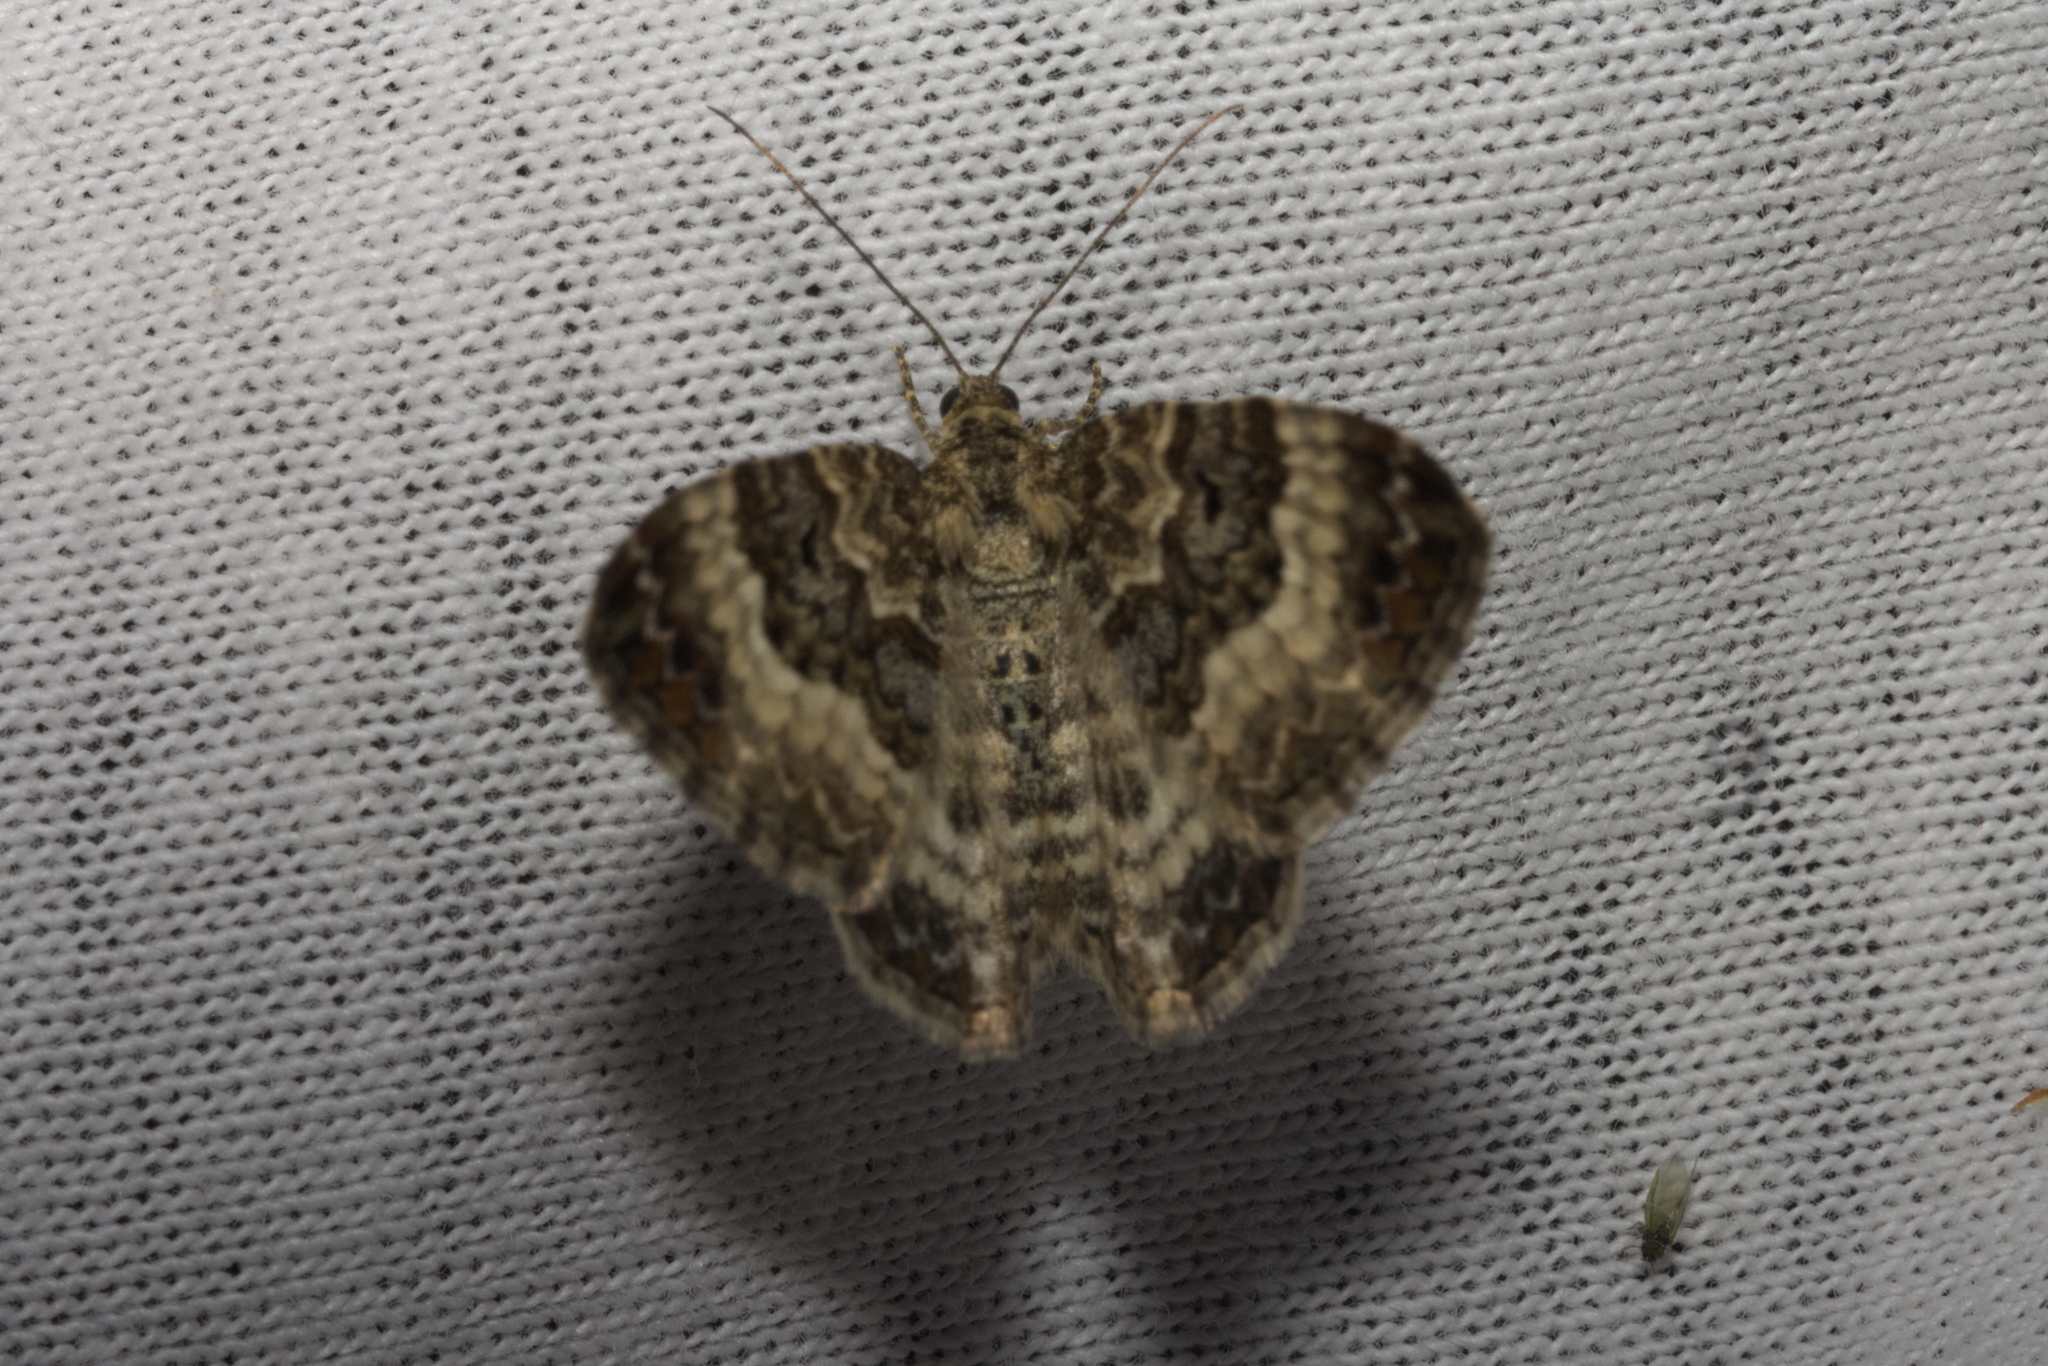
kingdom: Animalia
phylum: Arthropoda
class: Insecta
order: Lepidoptera
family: Geometridae
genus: Epirrhoe
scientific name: Epirrhoe alternata
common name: Common carpet
